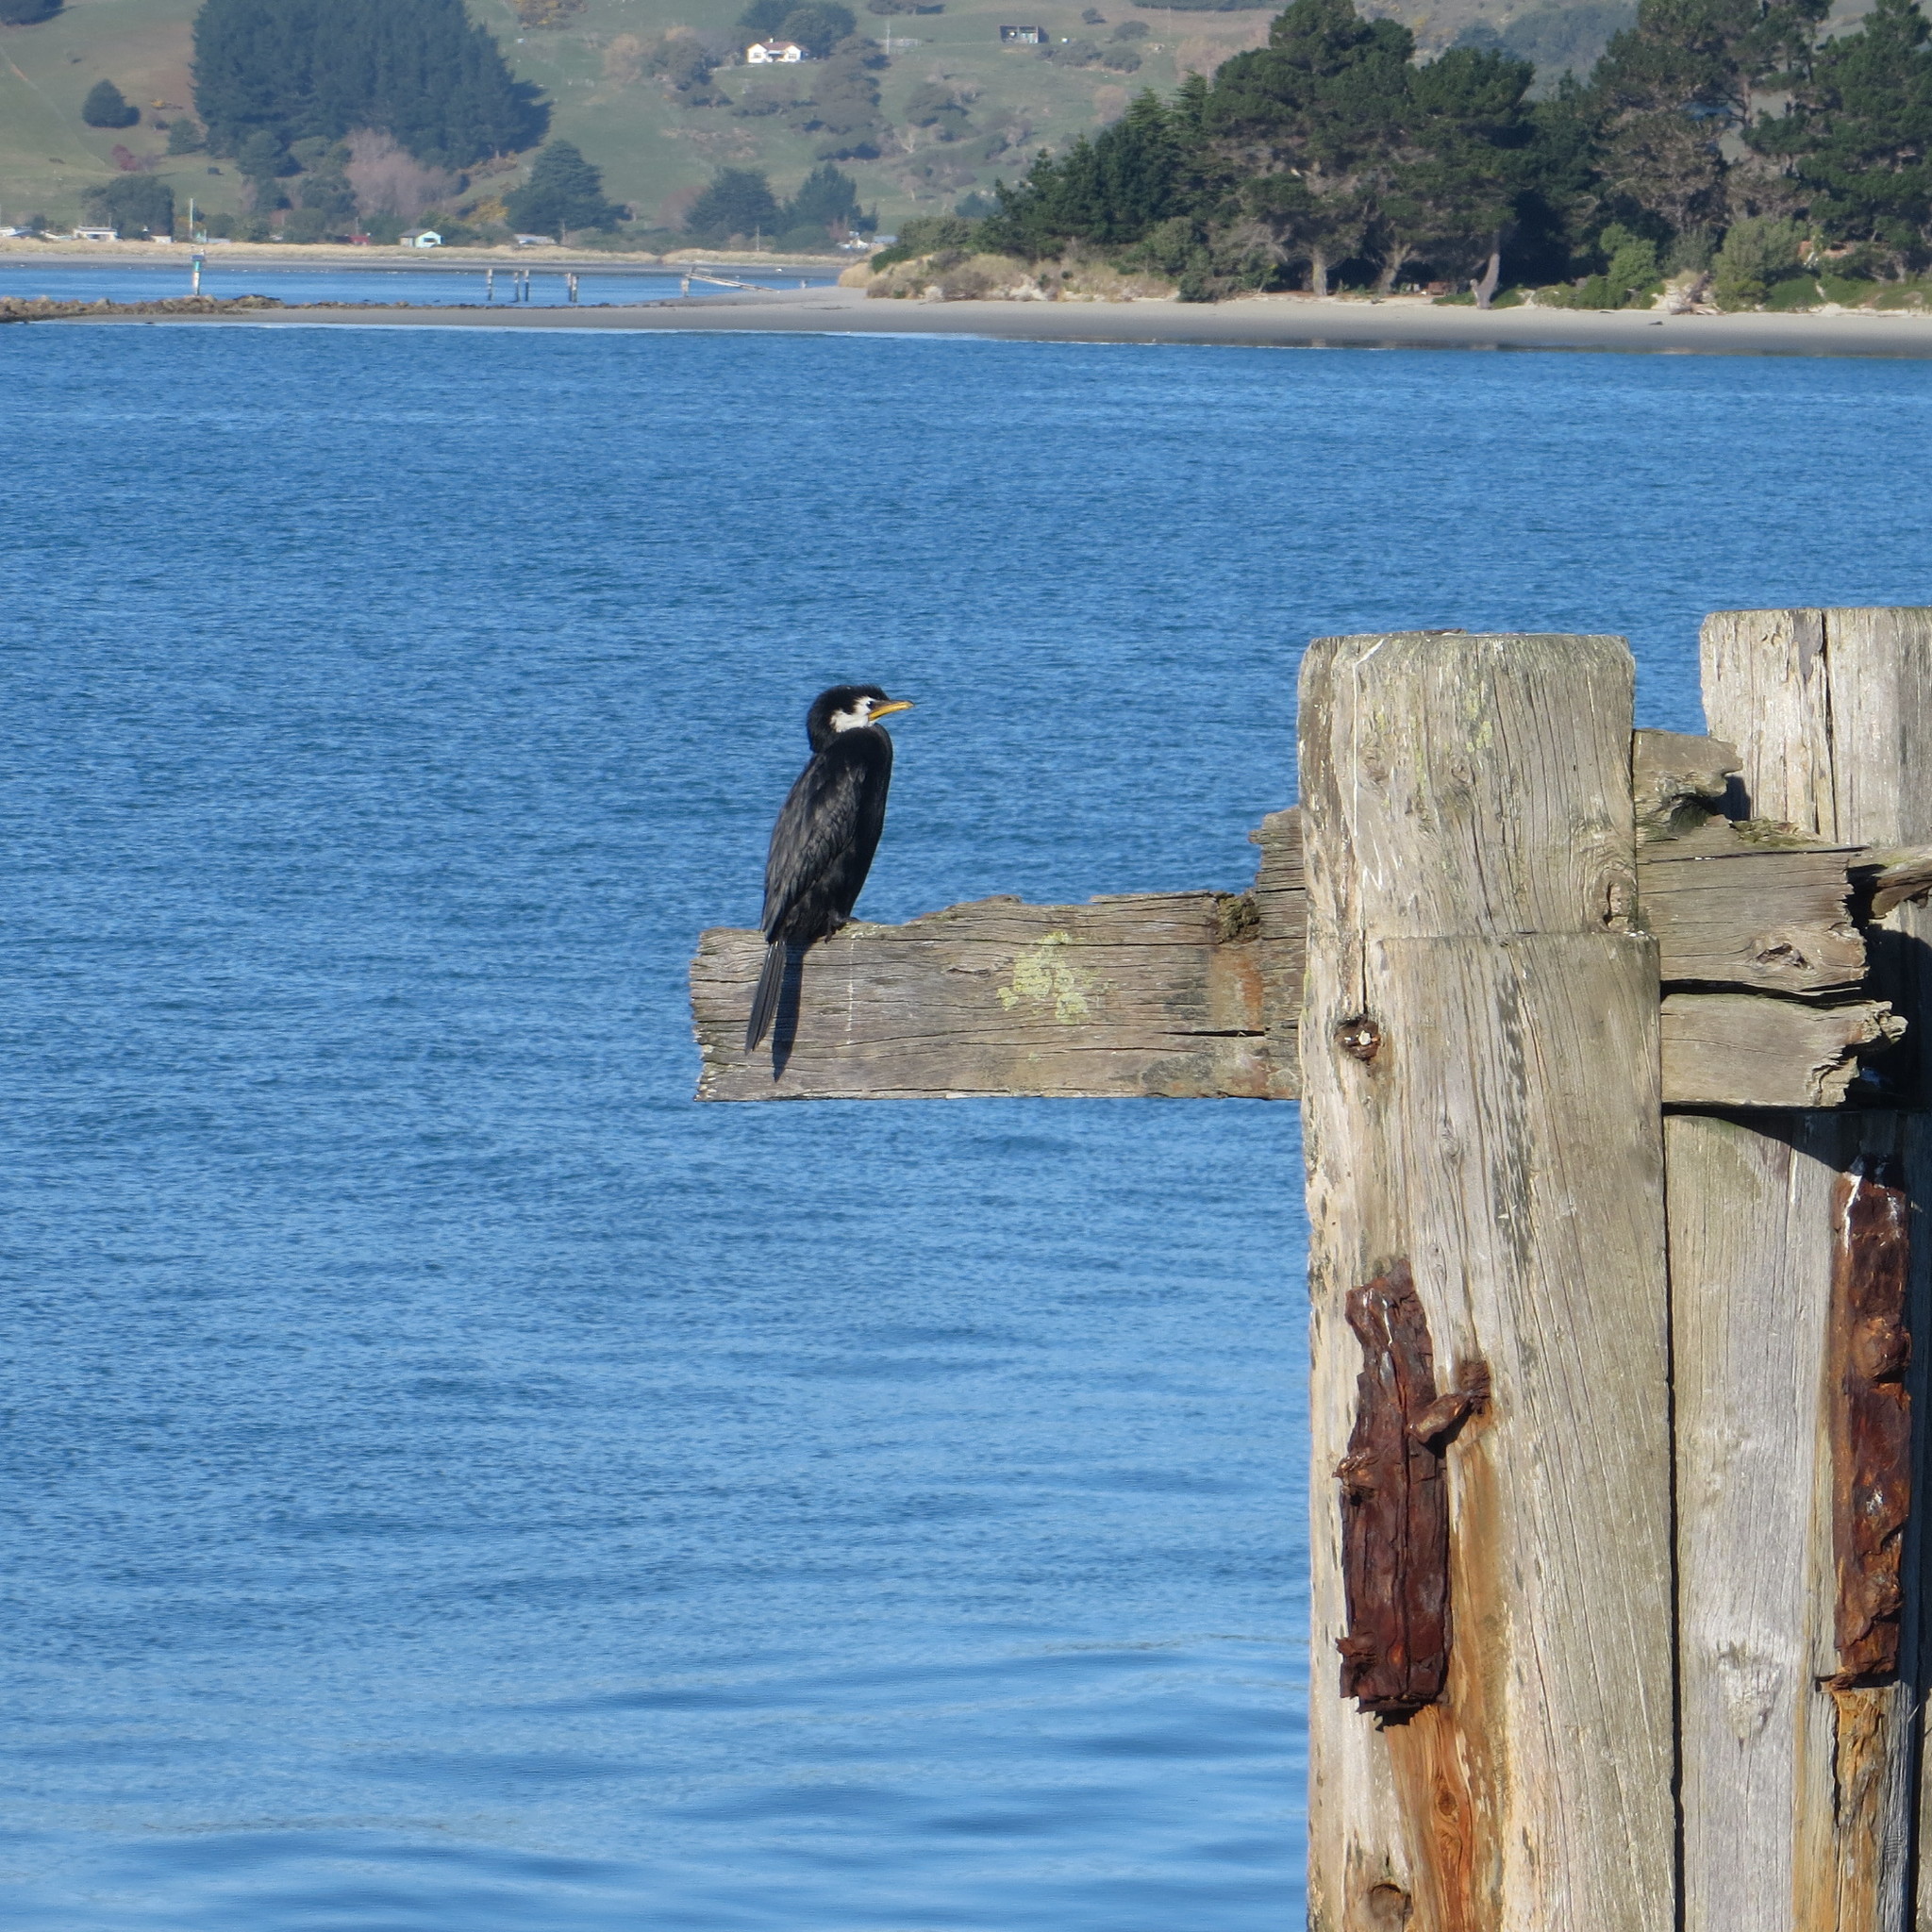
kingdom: Animalia
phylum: Chordata
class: Aves
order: Suliformes
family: Phalacrocoracidae
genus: Microcarbo
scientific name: Microcarbo melanoleucos
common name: Little pied cormorant
